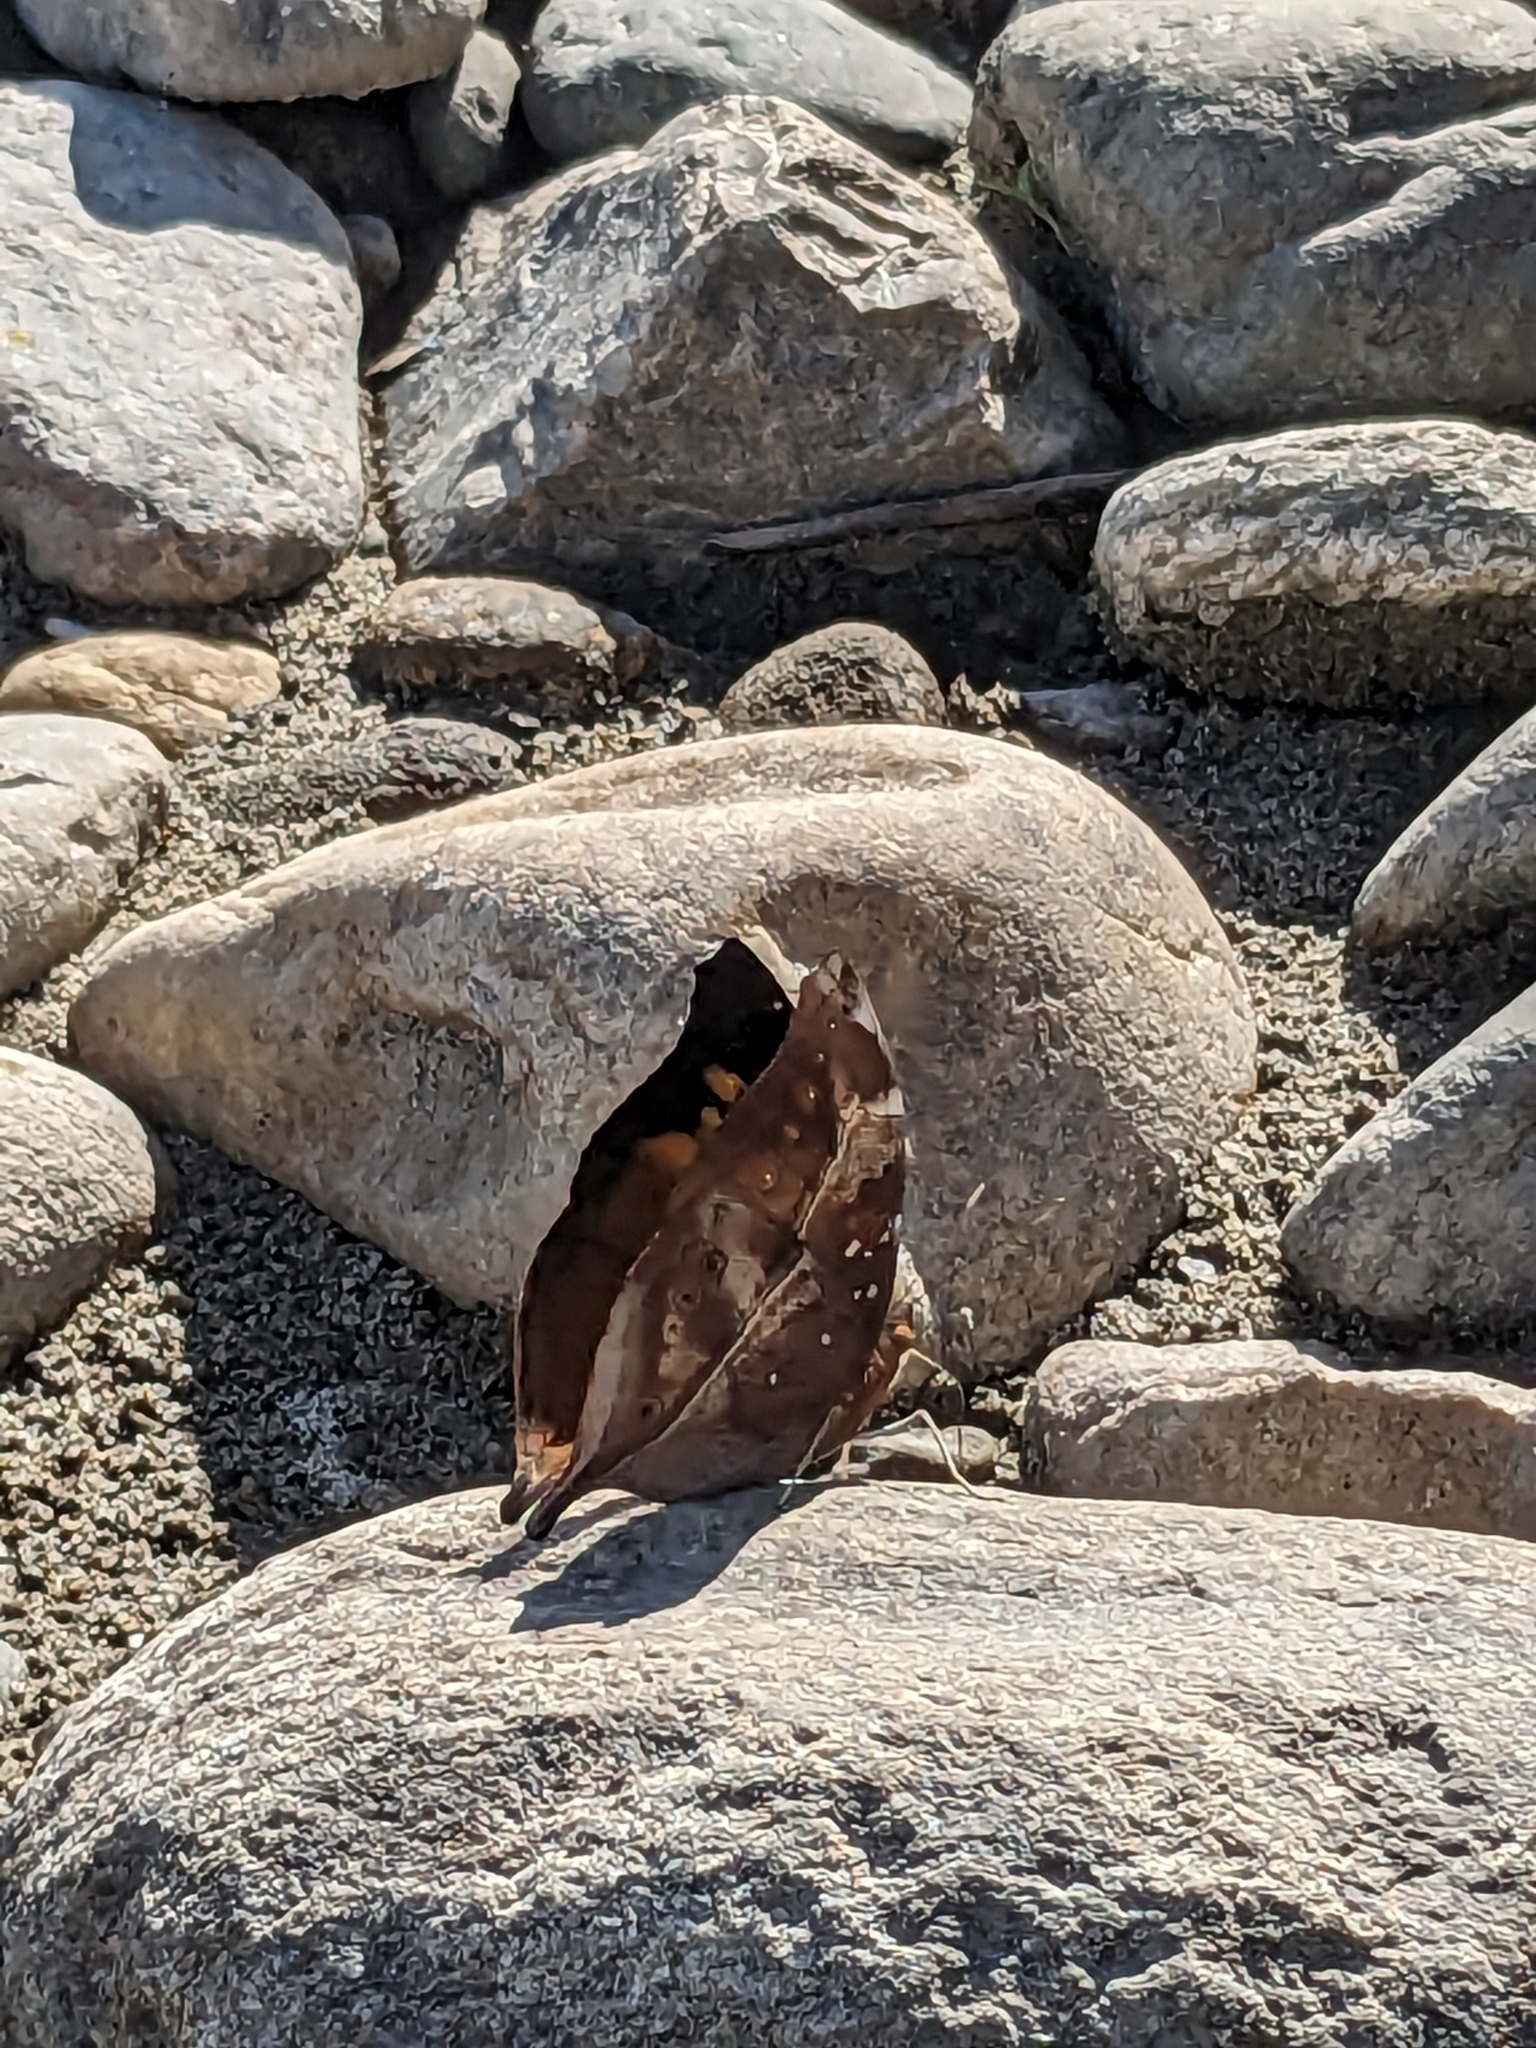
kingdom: Animalia
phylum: Arthropoda
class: Insecta
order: Lepidoptera
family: Nymphalidae
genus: Doleschallia
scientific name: Doleschallia bisaltide
